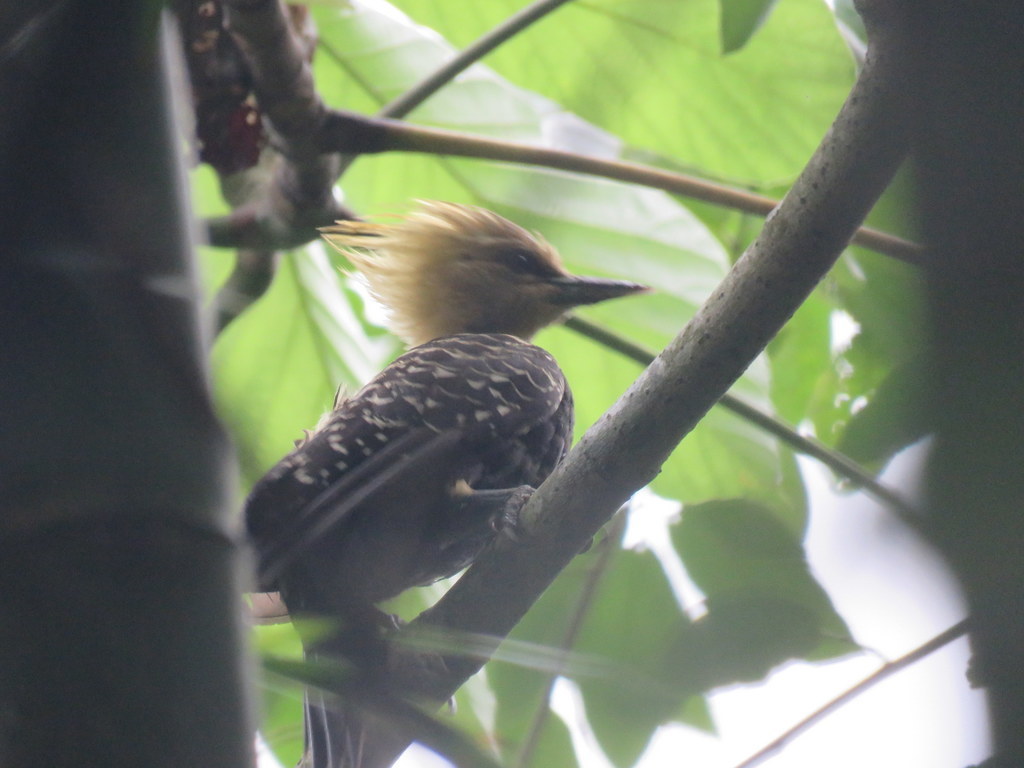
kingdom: Animalia
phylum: Chordata
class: Aves
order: Piciformes
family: Picidae
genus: Celeus
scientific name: Celeus flavescens
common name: Blond-crested woodpecker
